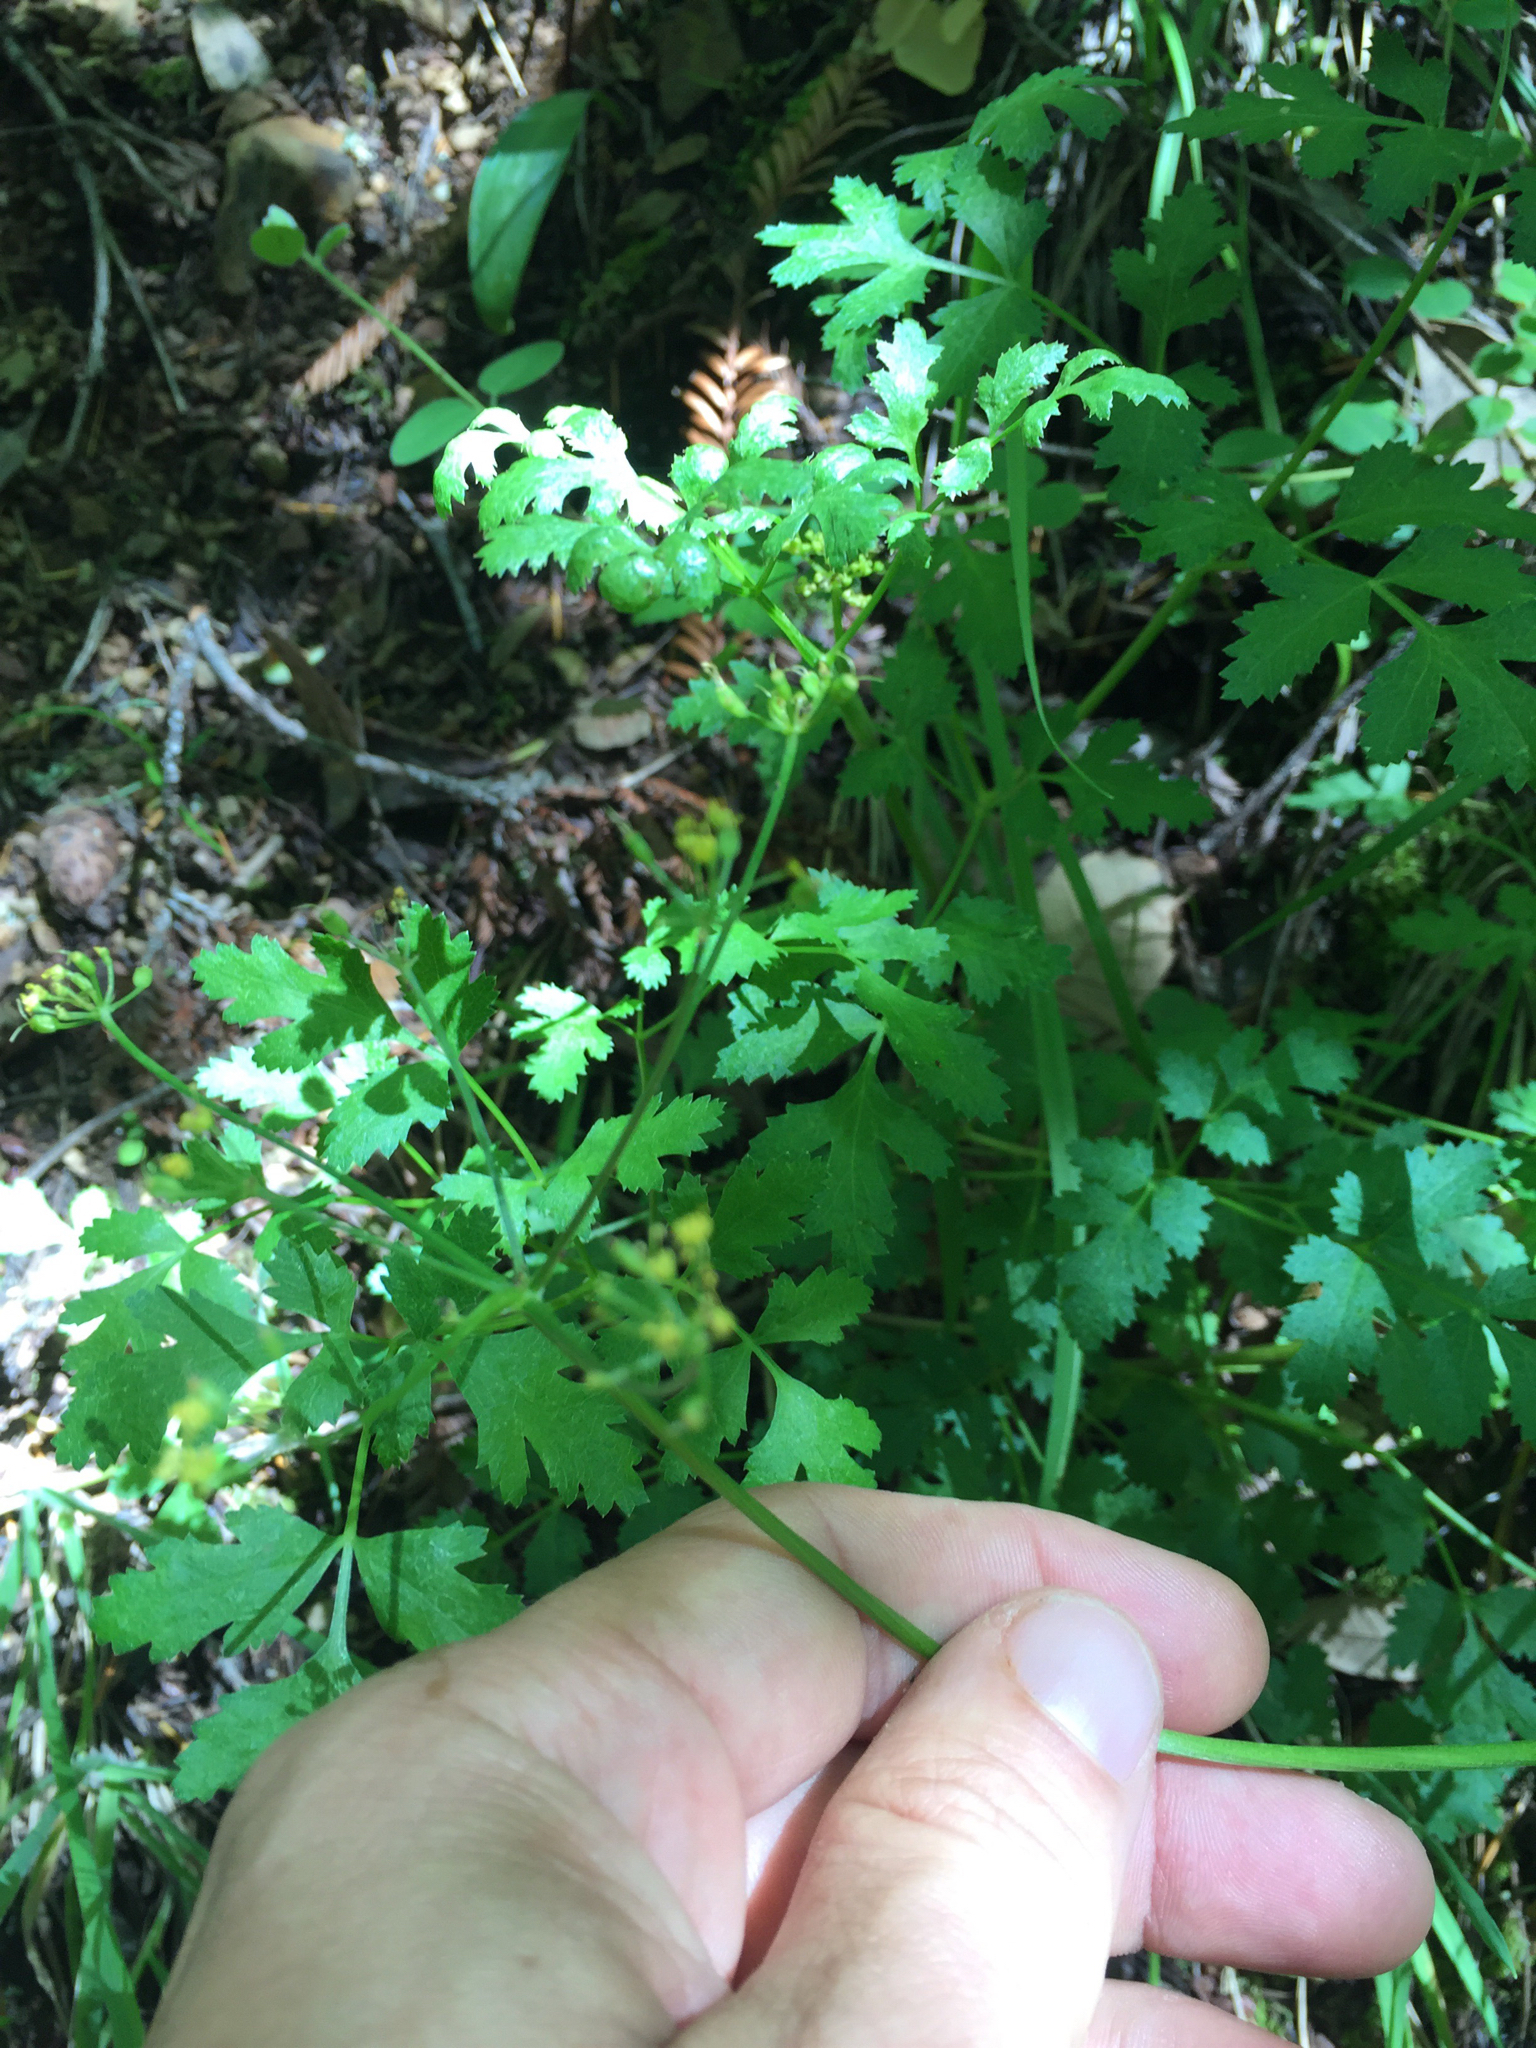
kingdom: Plantae
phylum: Tracheophyta
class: Magnoliopsida
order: Apiales
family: Apiaceae
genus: Tauschia
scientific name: Tauschia kelloggii
